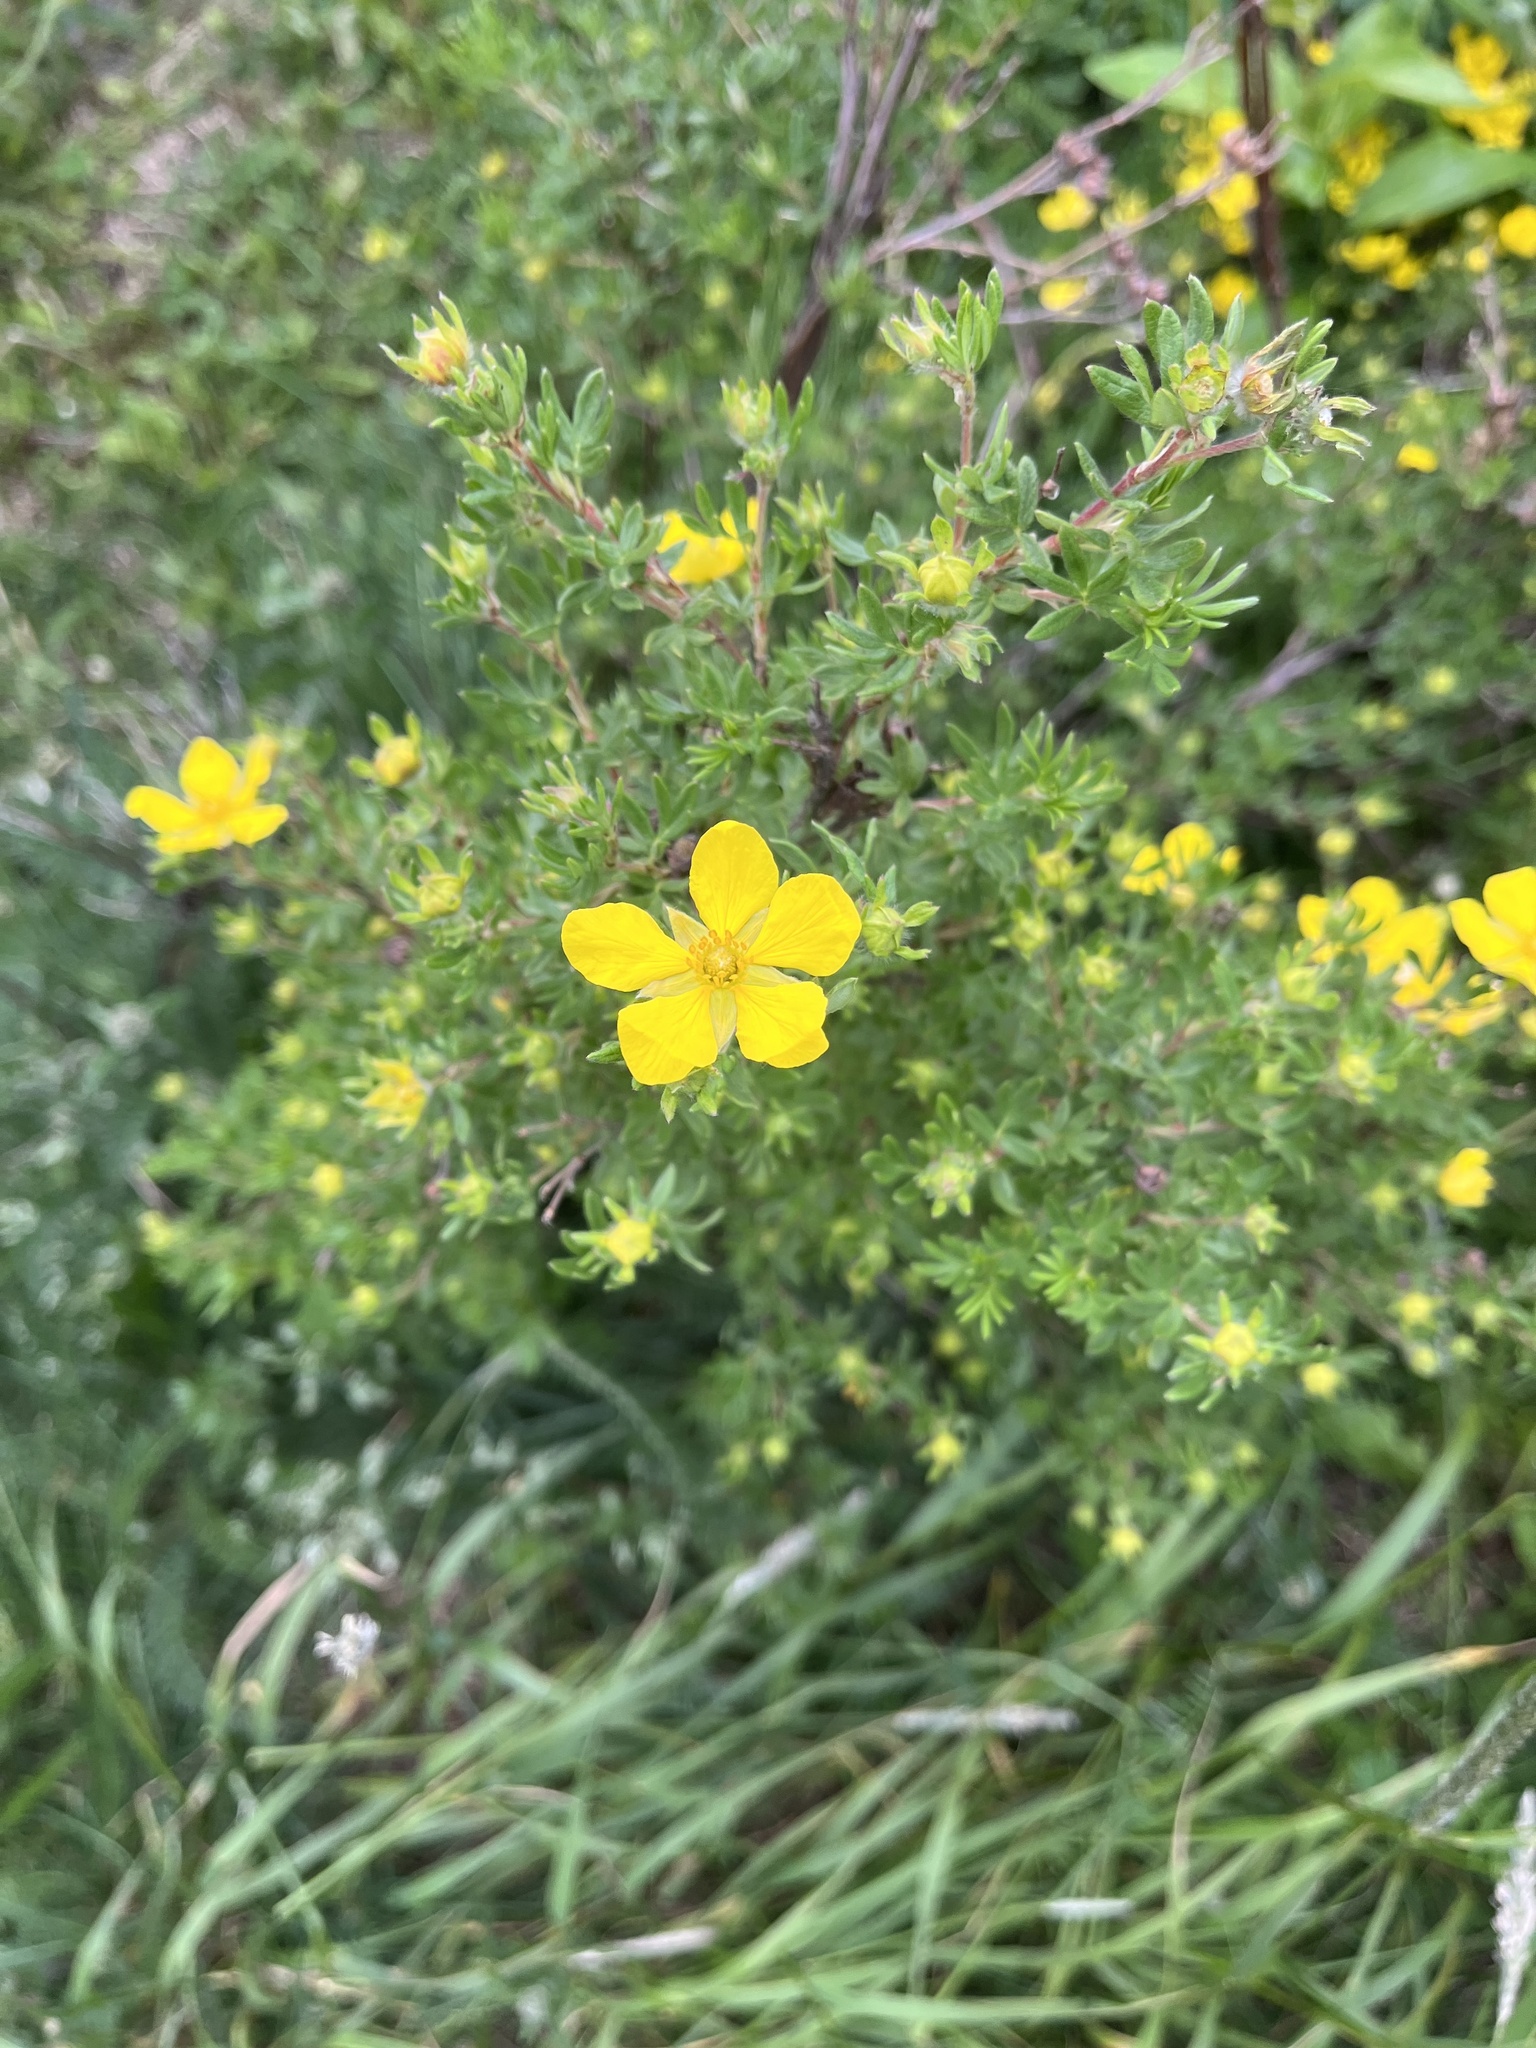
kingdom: Plantae
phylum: Tracheophyta
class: Magnoliopsida
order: Rosales
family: Rosaceae
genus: Dasiphora
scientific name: Dasiphora fruticosa
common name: Shrubby cinquefoil
